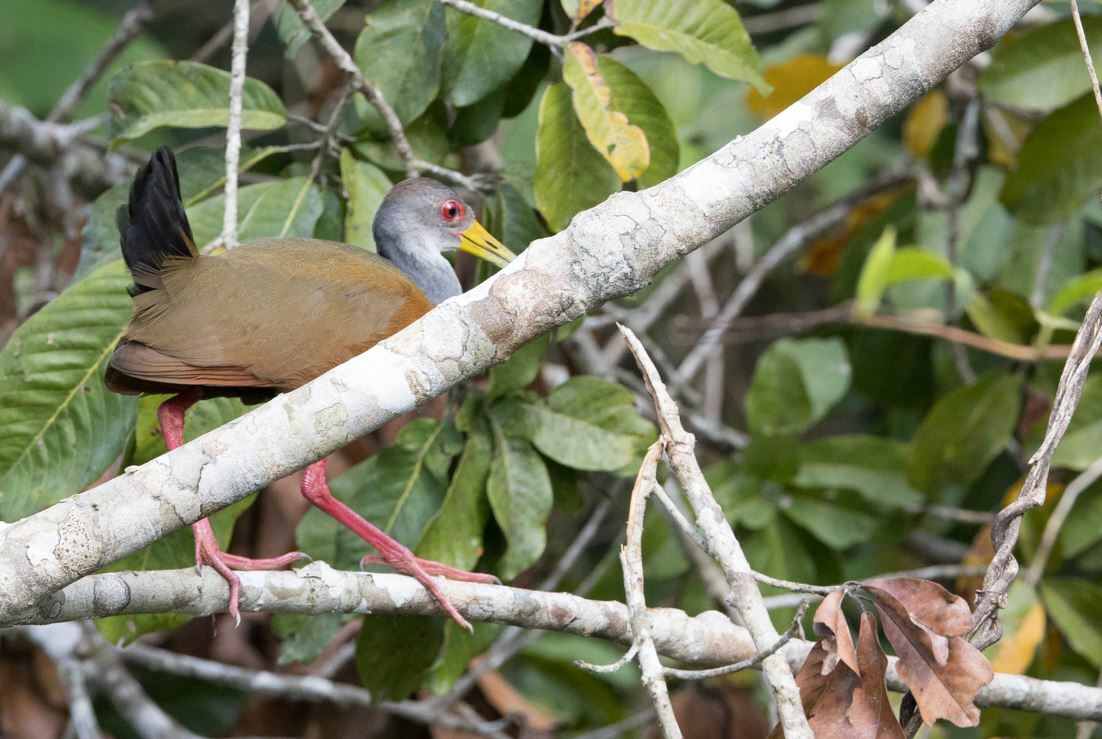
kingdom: Animalia
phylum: Chordata
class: Aves
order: Gruiformes
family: Rallidae
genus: Aramides
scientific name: Aramides cajanea
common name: Gray-necked wood-rail
